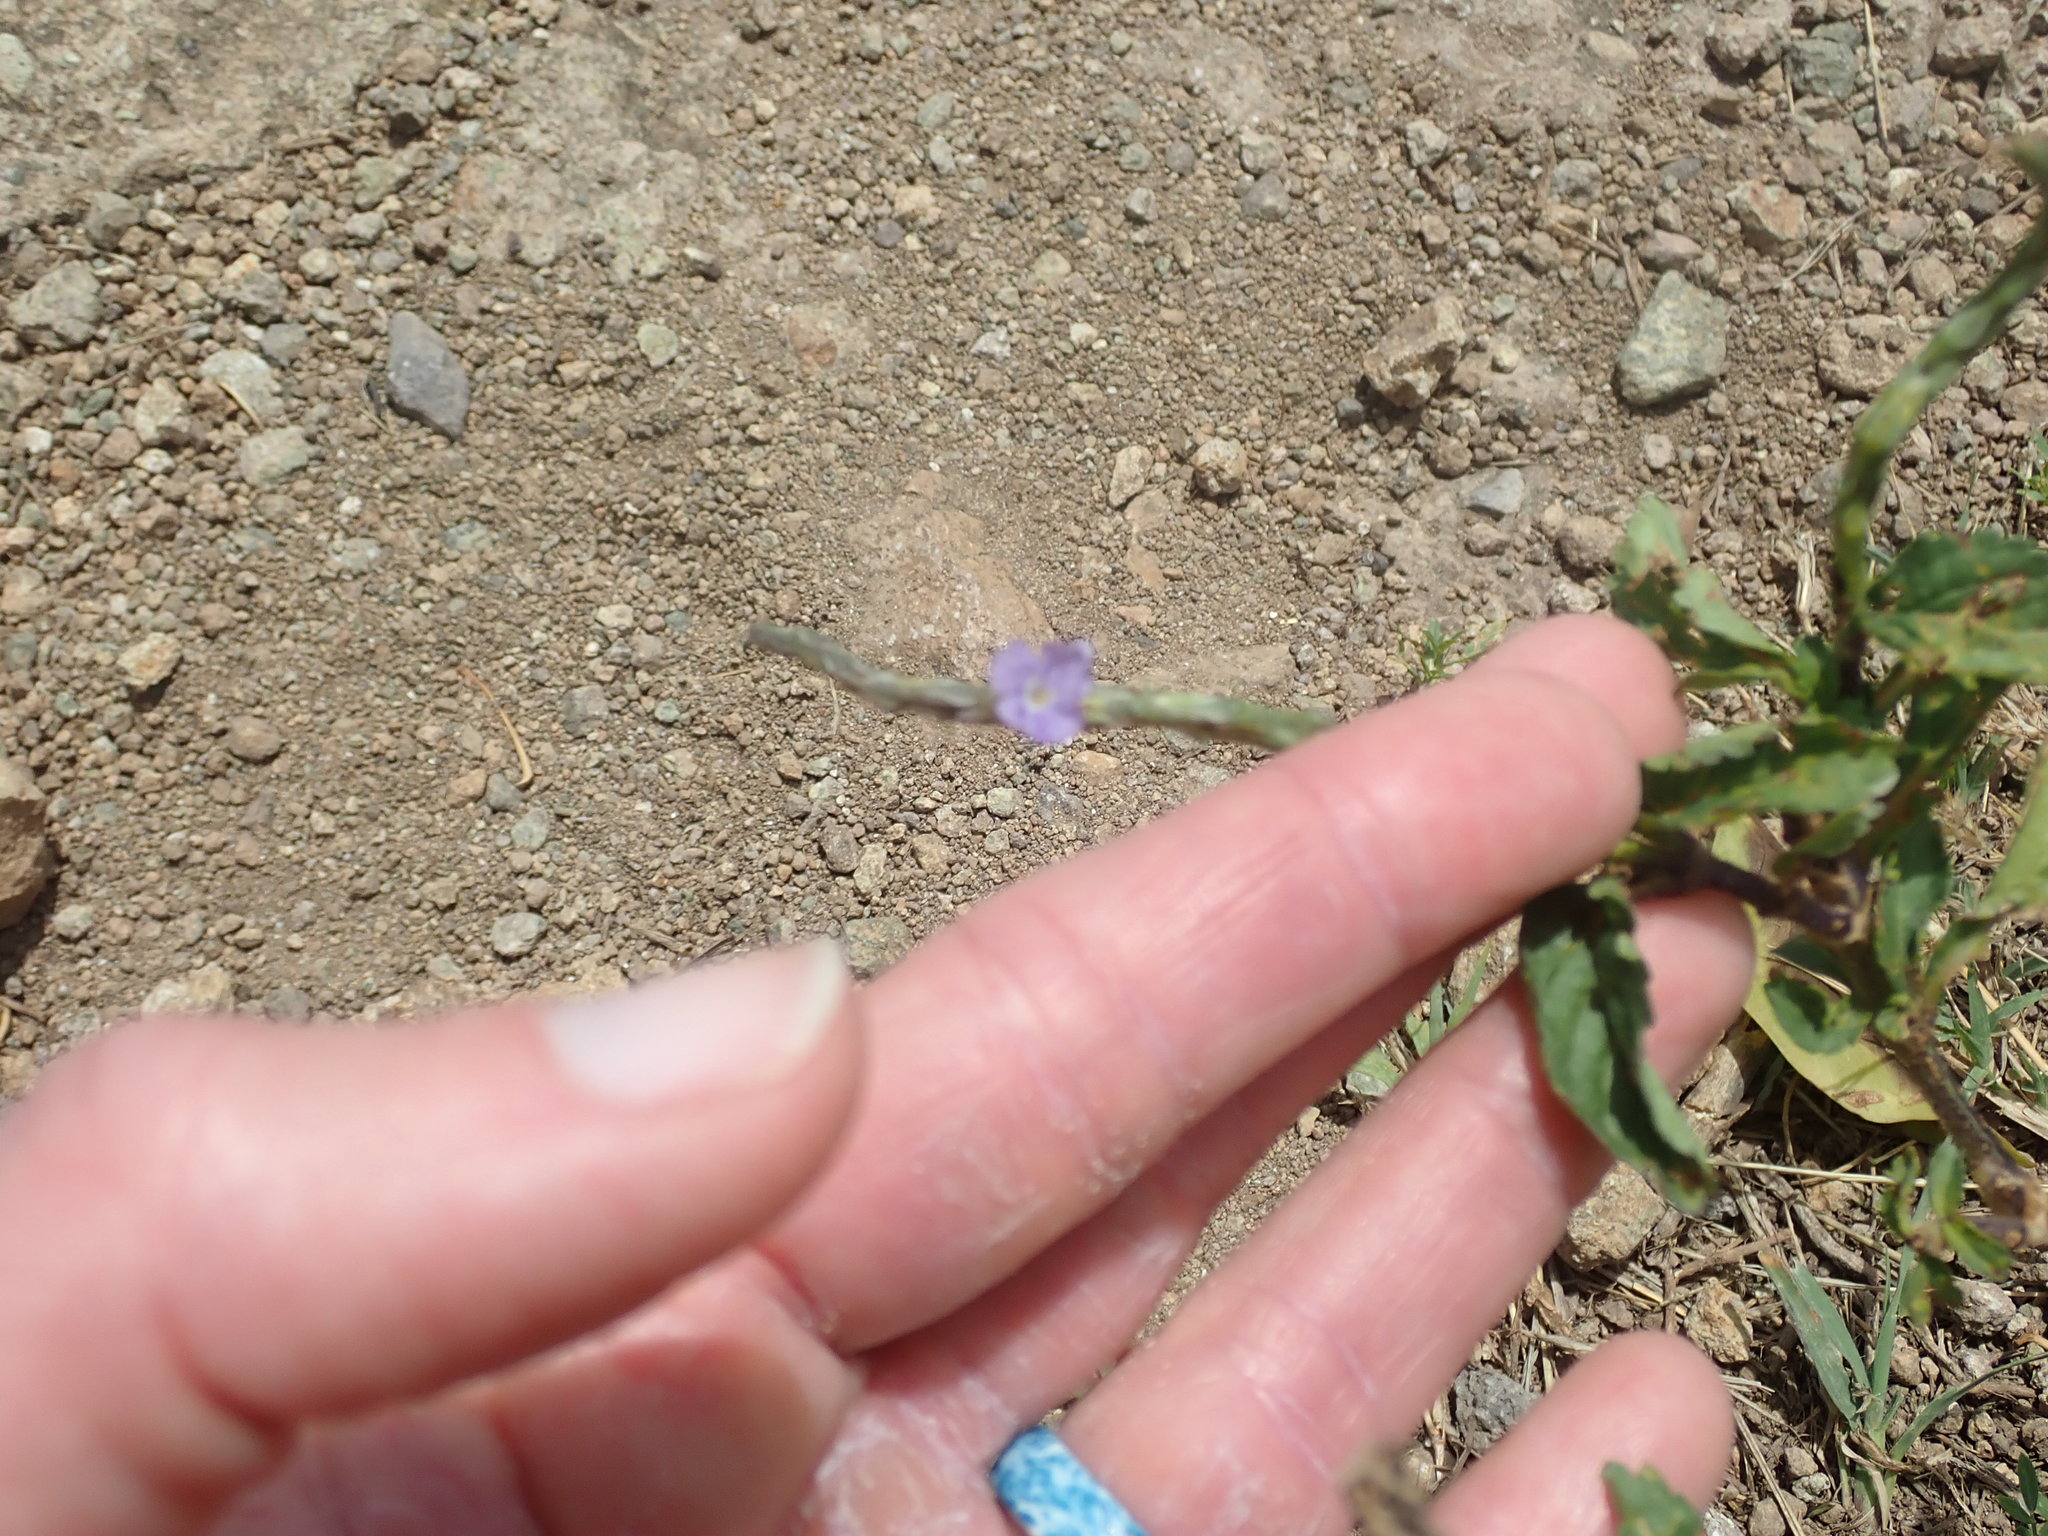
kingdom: Plantae
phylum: Tracheophyta
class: Magnoliopsida
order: Lamiales
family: Verbenaceae
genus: Stachytarpheta
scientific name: Stachytarpheta jamaicensis
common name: Light-blue snakeweed
